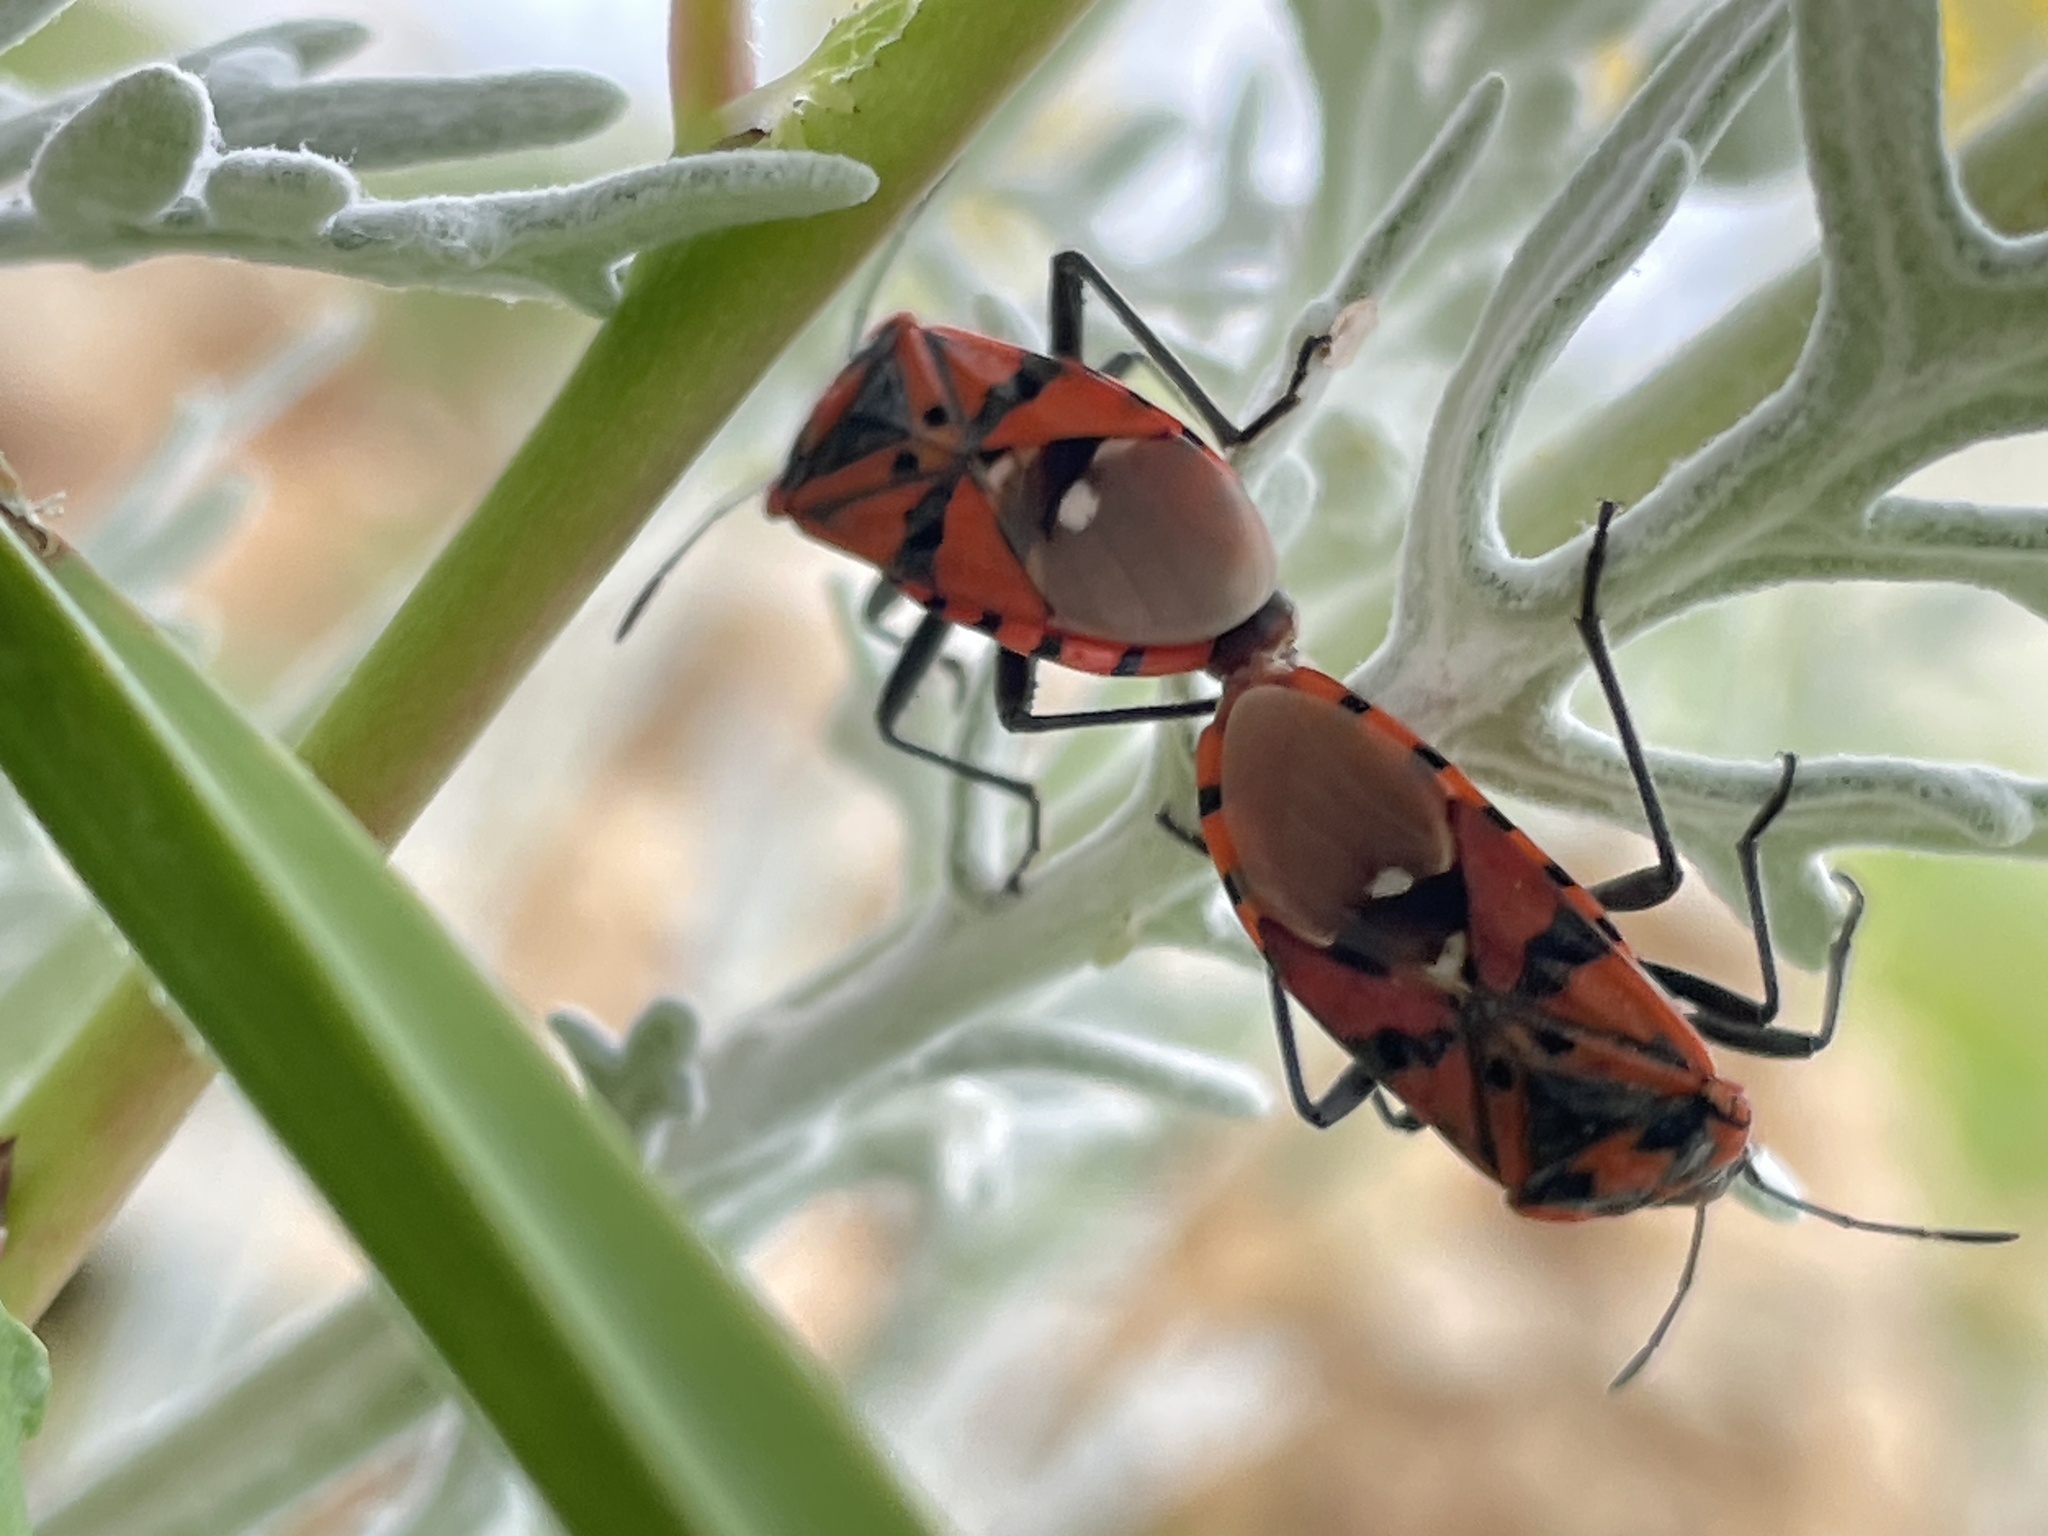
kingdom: Animalia
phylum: Arthropoda
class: Insecta
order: Hemiptera
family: Lygaeidae
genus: Spilostethus
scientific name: Spilostethus pandurus
